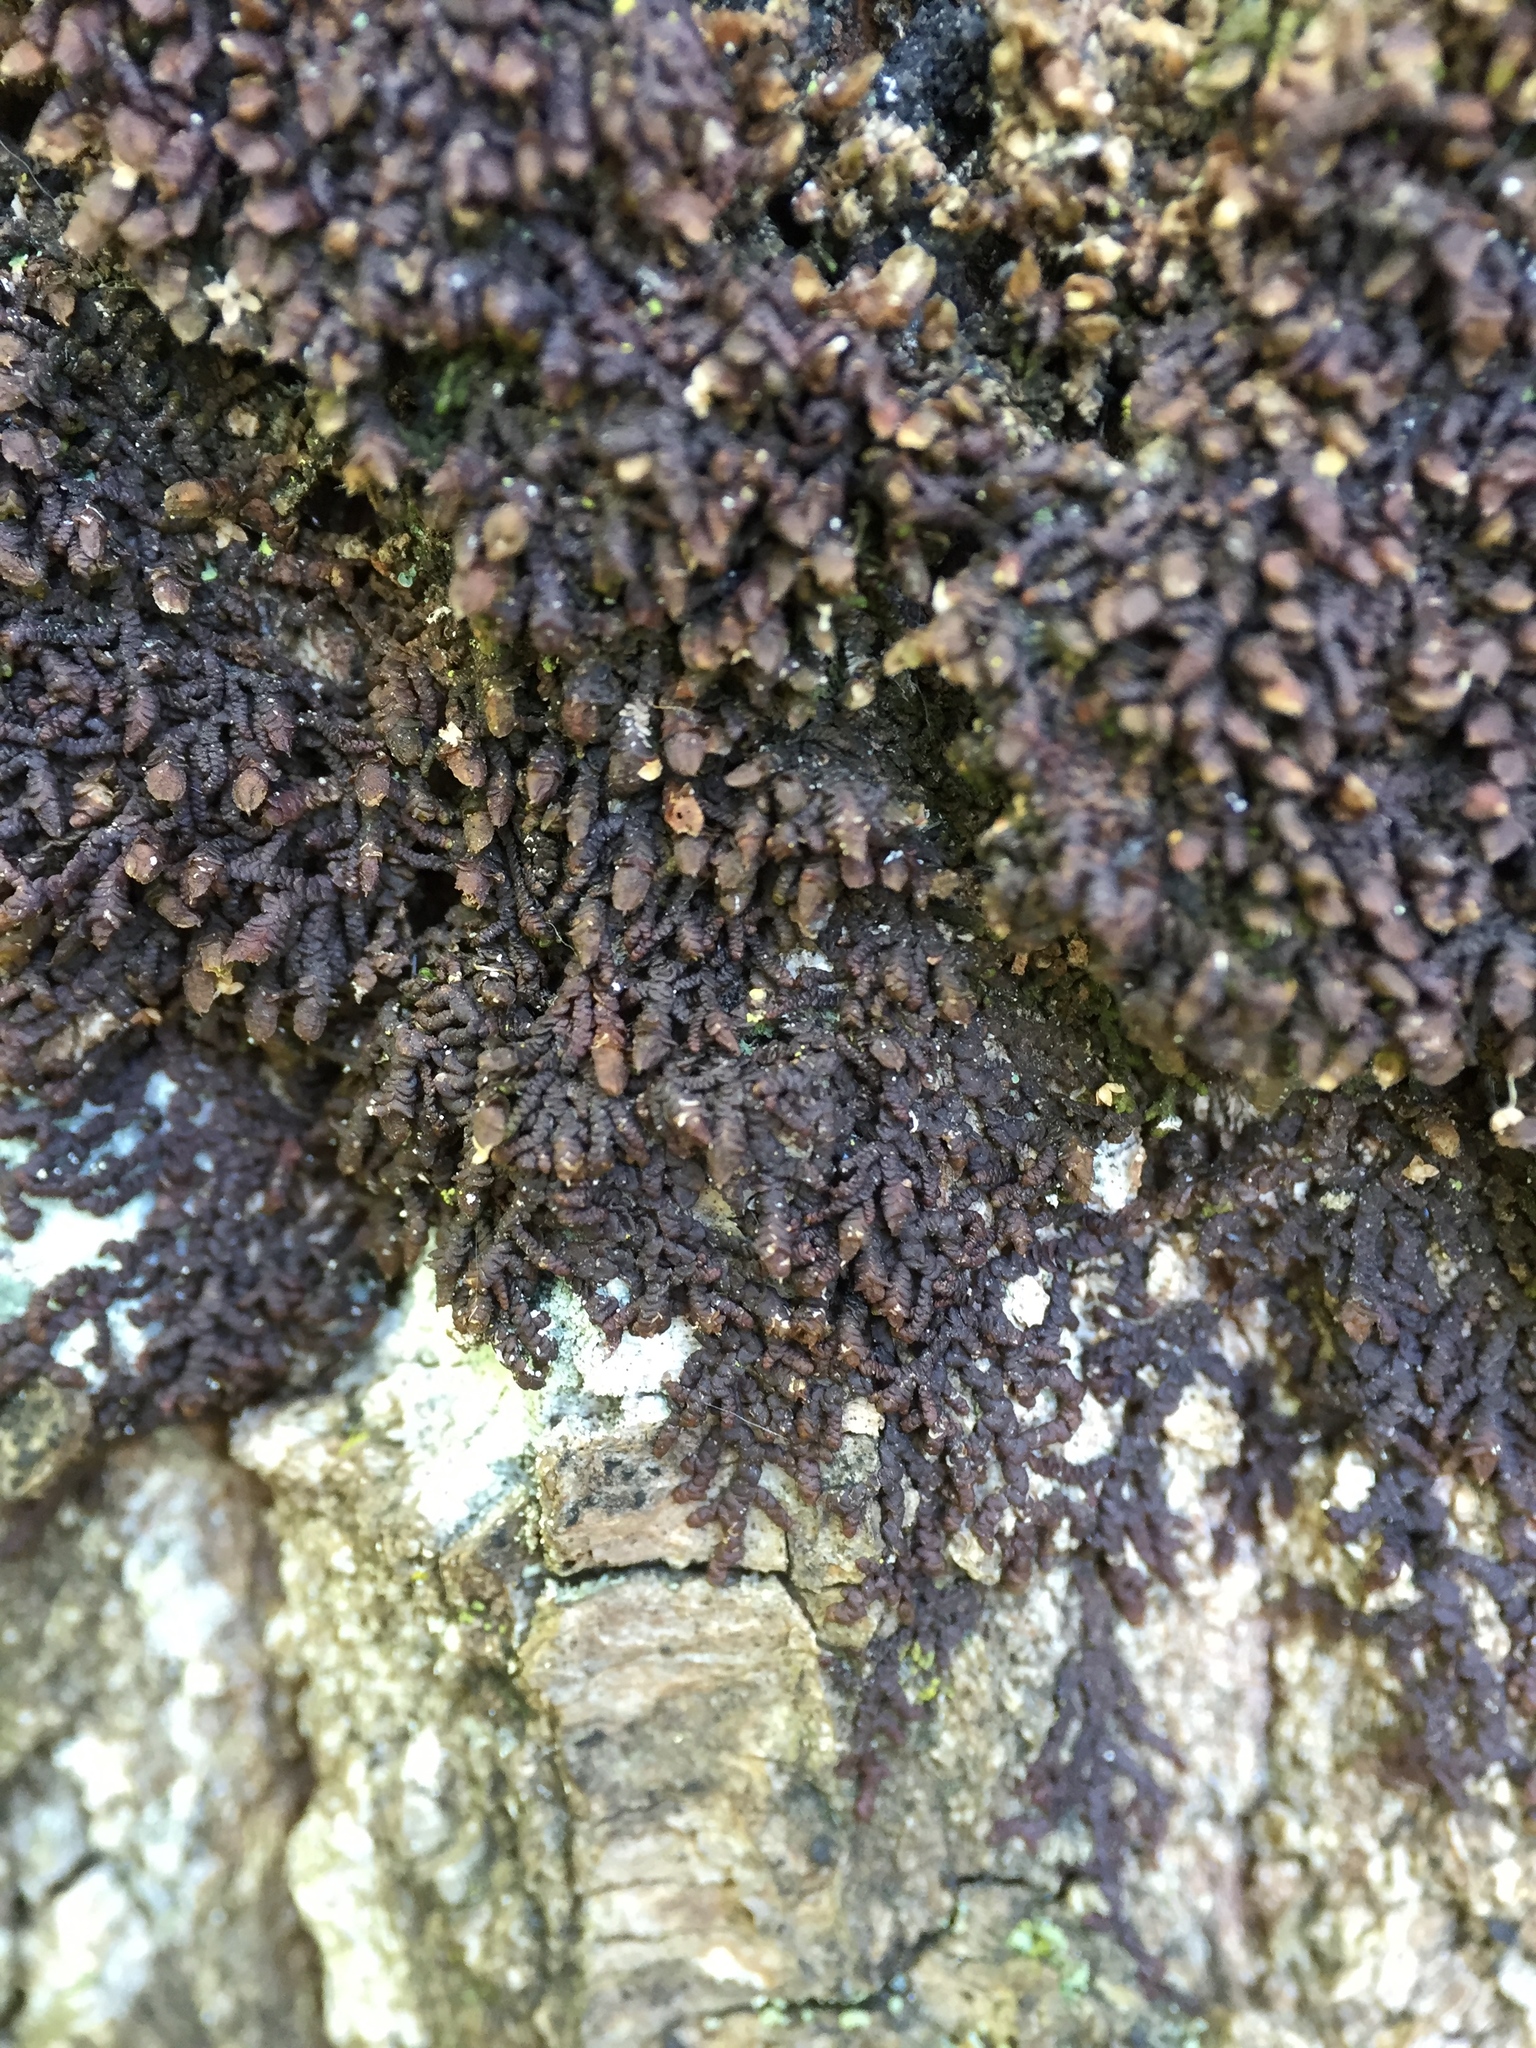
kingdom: Plantae
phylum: Marchantiophyta
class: Jungermanniopsida
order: Porellales
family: Frullaniaceae
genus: Frullania
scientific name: Frullania dilatata
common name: Dilated scalewort
